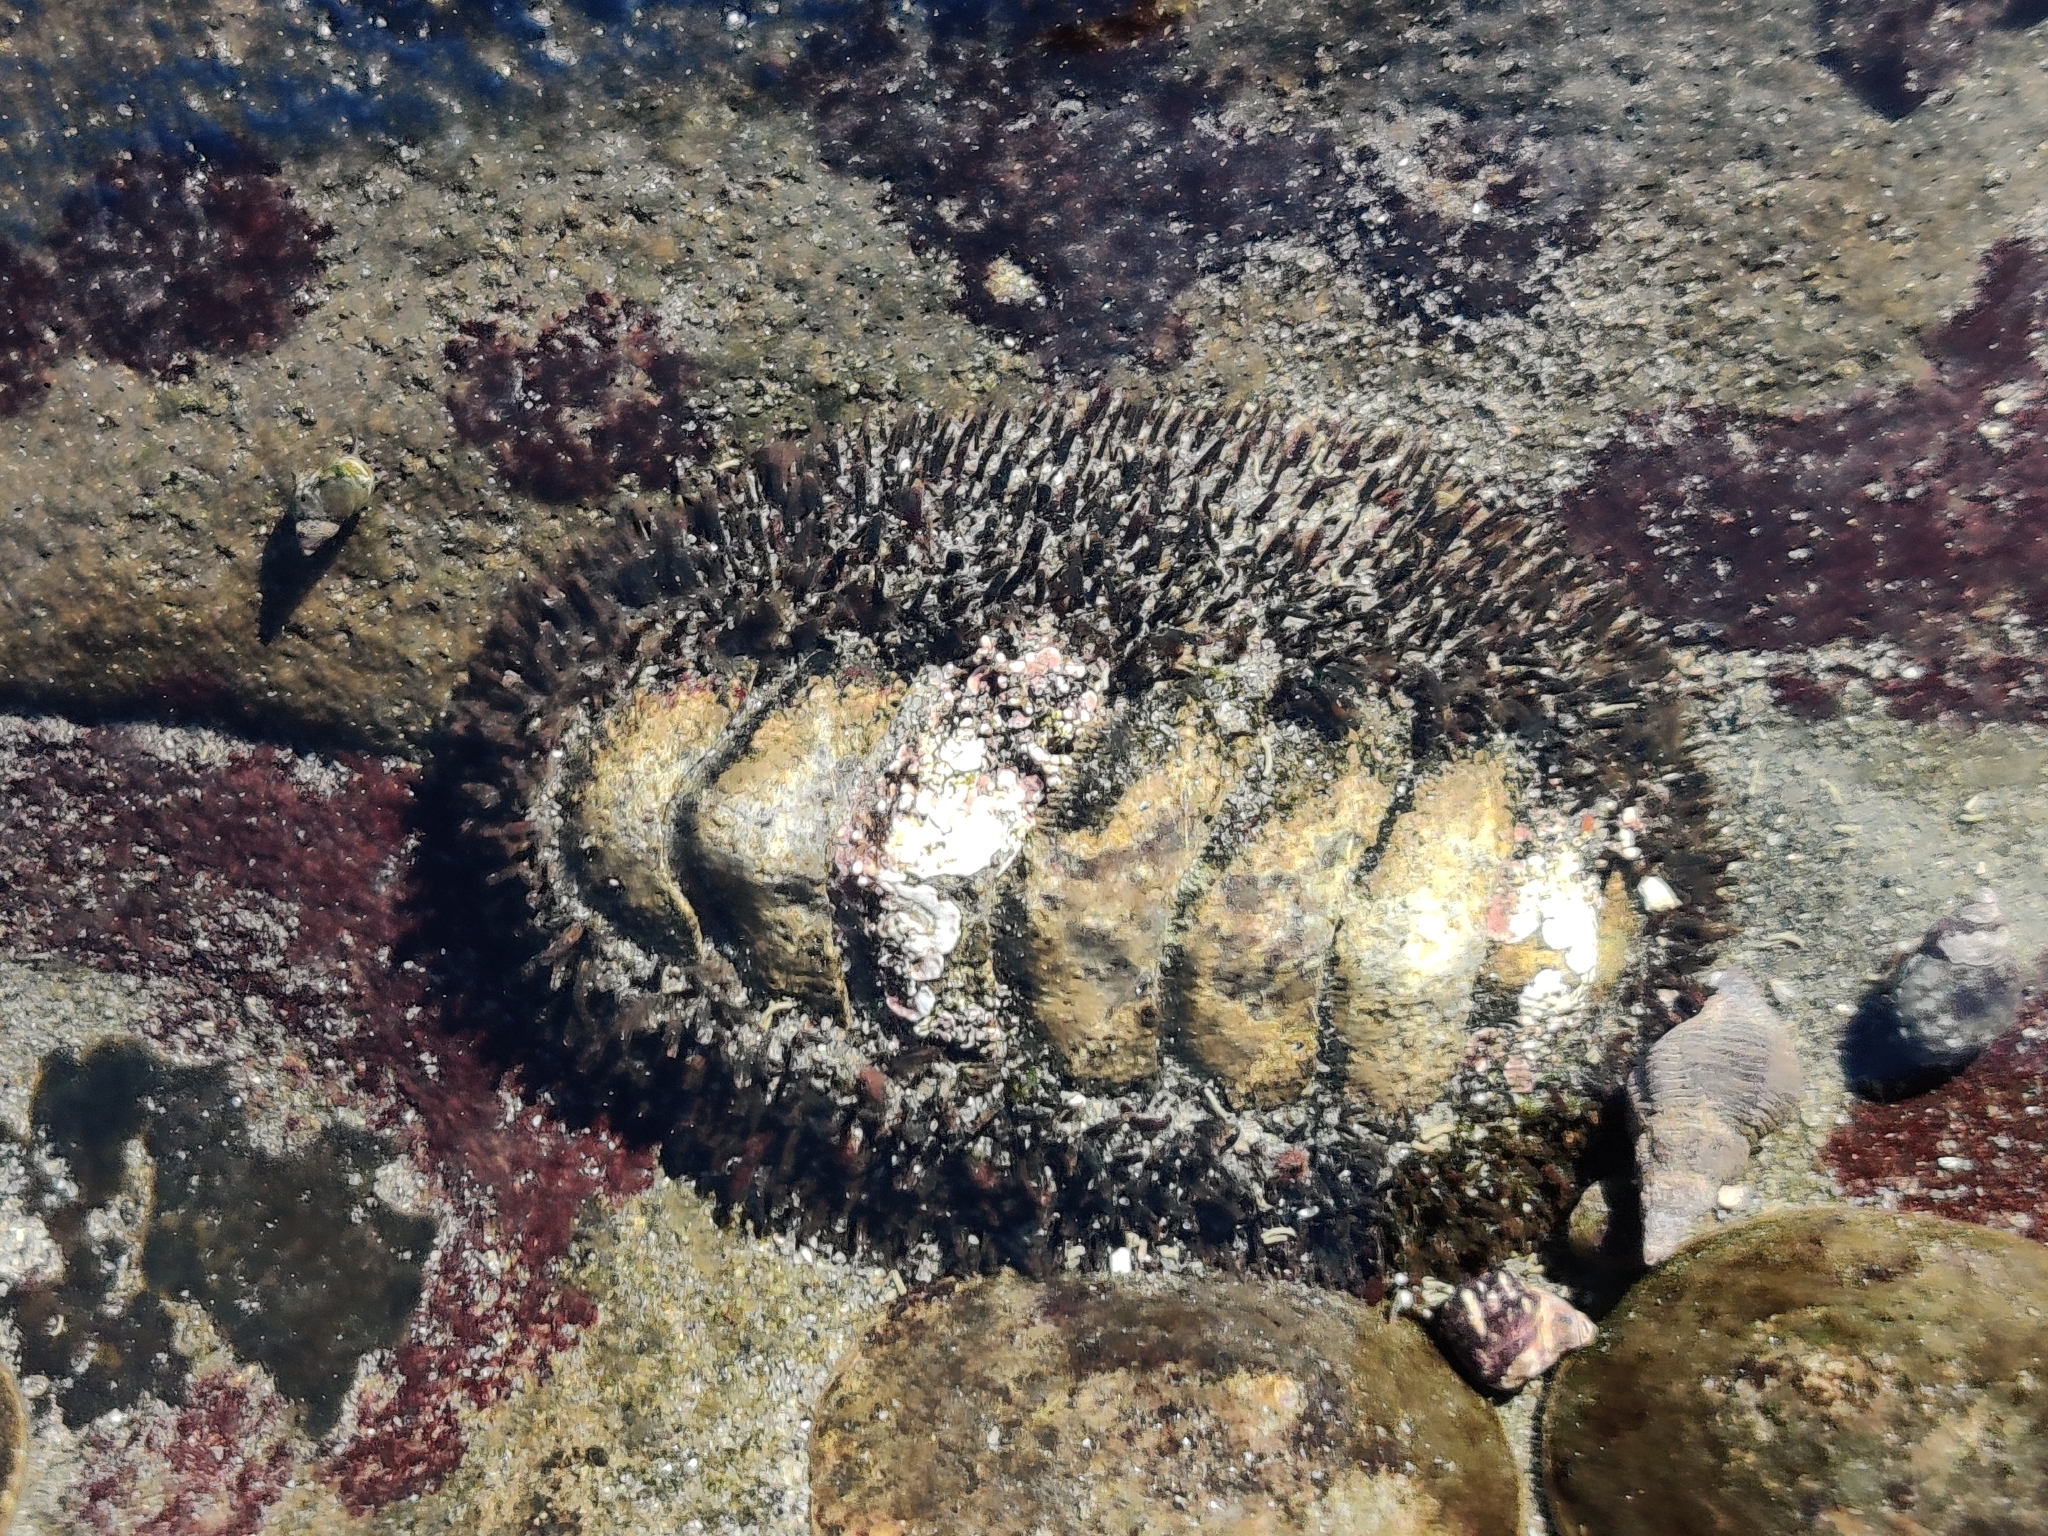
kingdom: Animalia
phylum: Mollusca
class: Polyplacophora
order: Chitonida
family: Mopaliidae
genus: Mopalia
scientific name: Mopalia muscosa
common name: Mossy chiton
